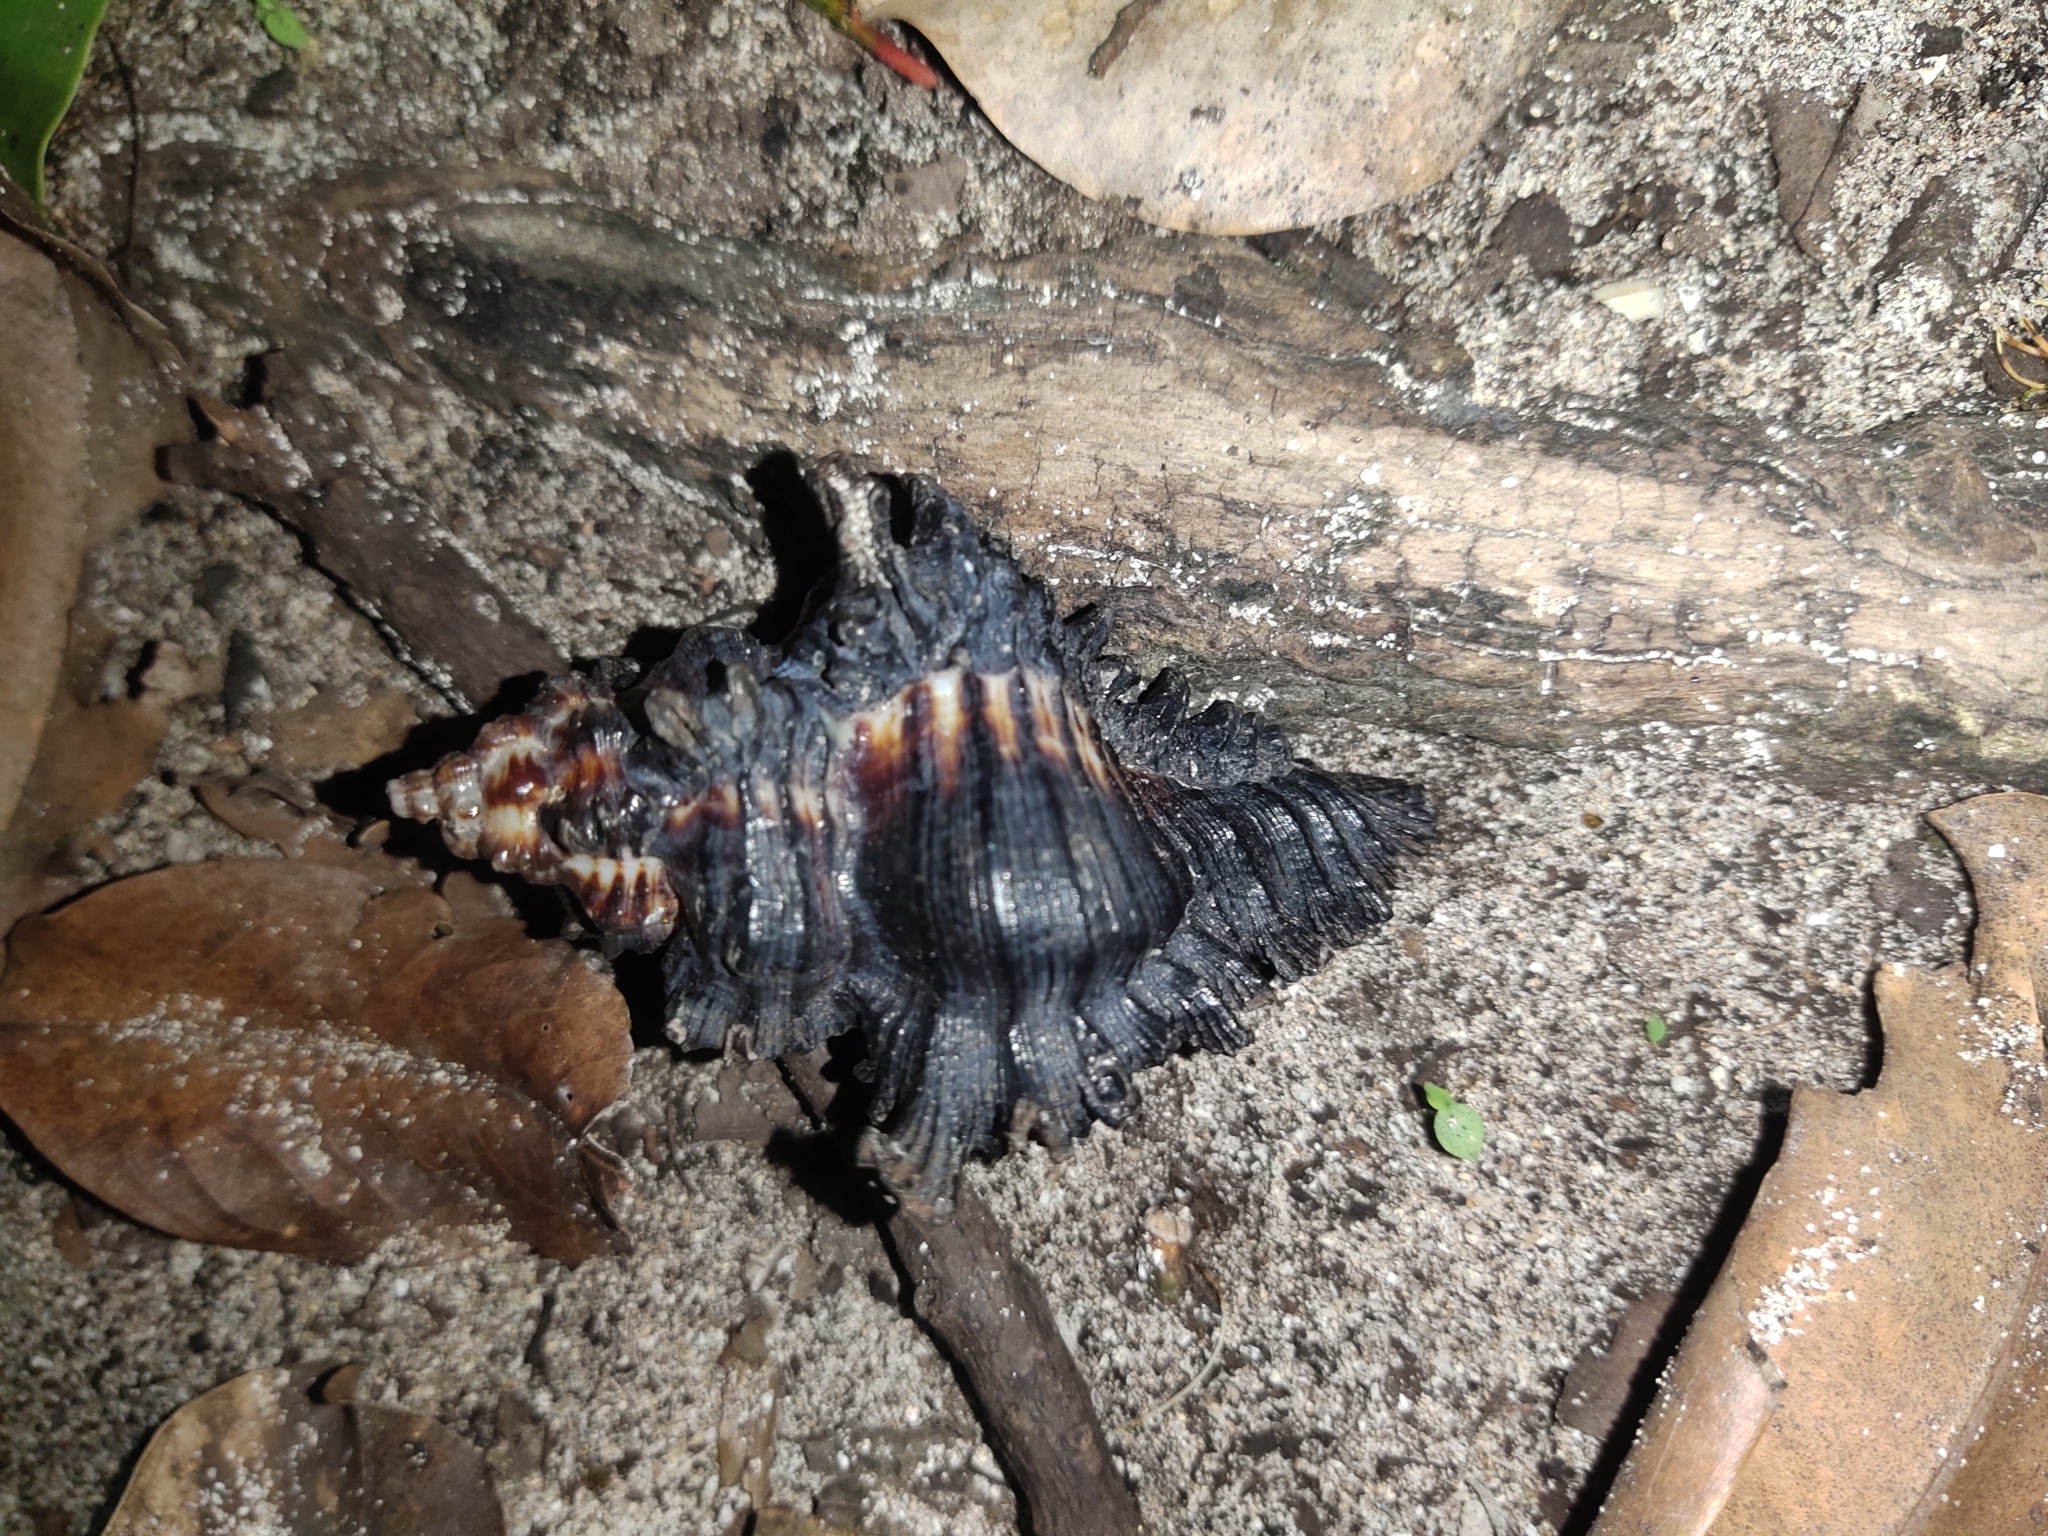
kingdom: Animalia
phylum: Mollusca
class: Gastropoda
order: Neogastropoda
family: Muricidae
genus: Chicoreus
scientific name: Chicoreus brunneus
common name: Adusta murex
